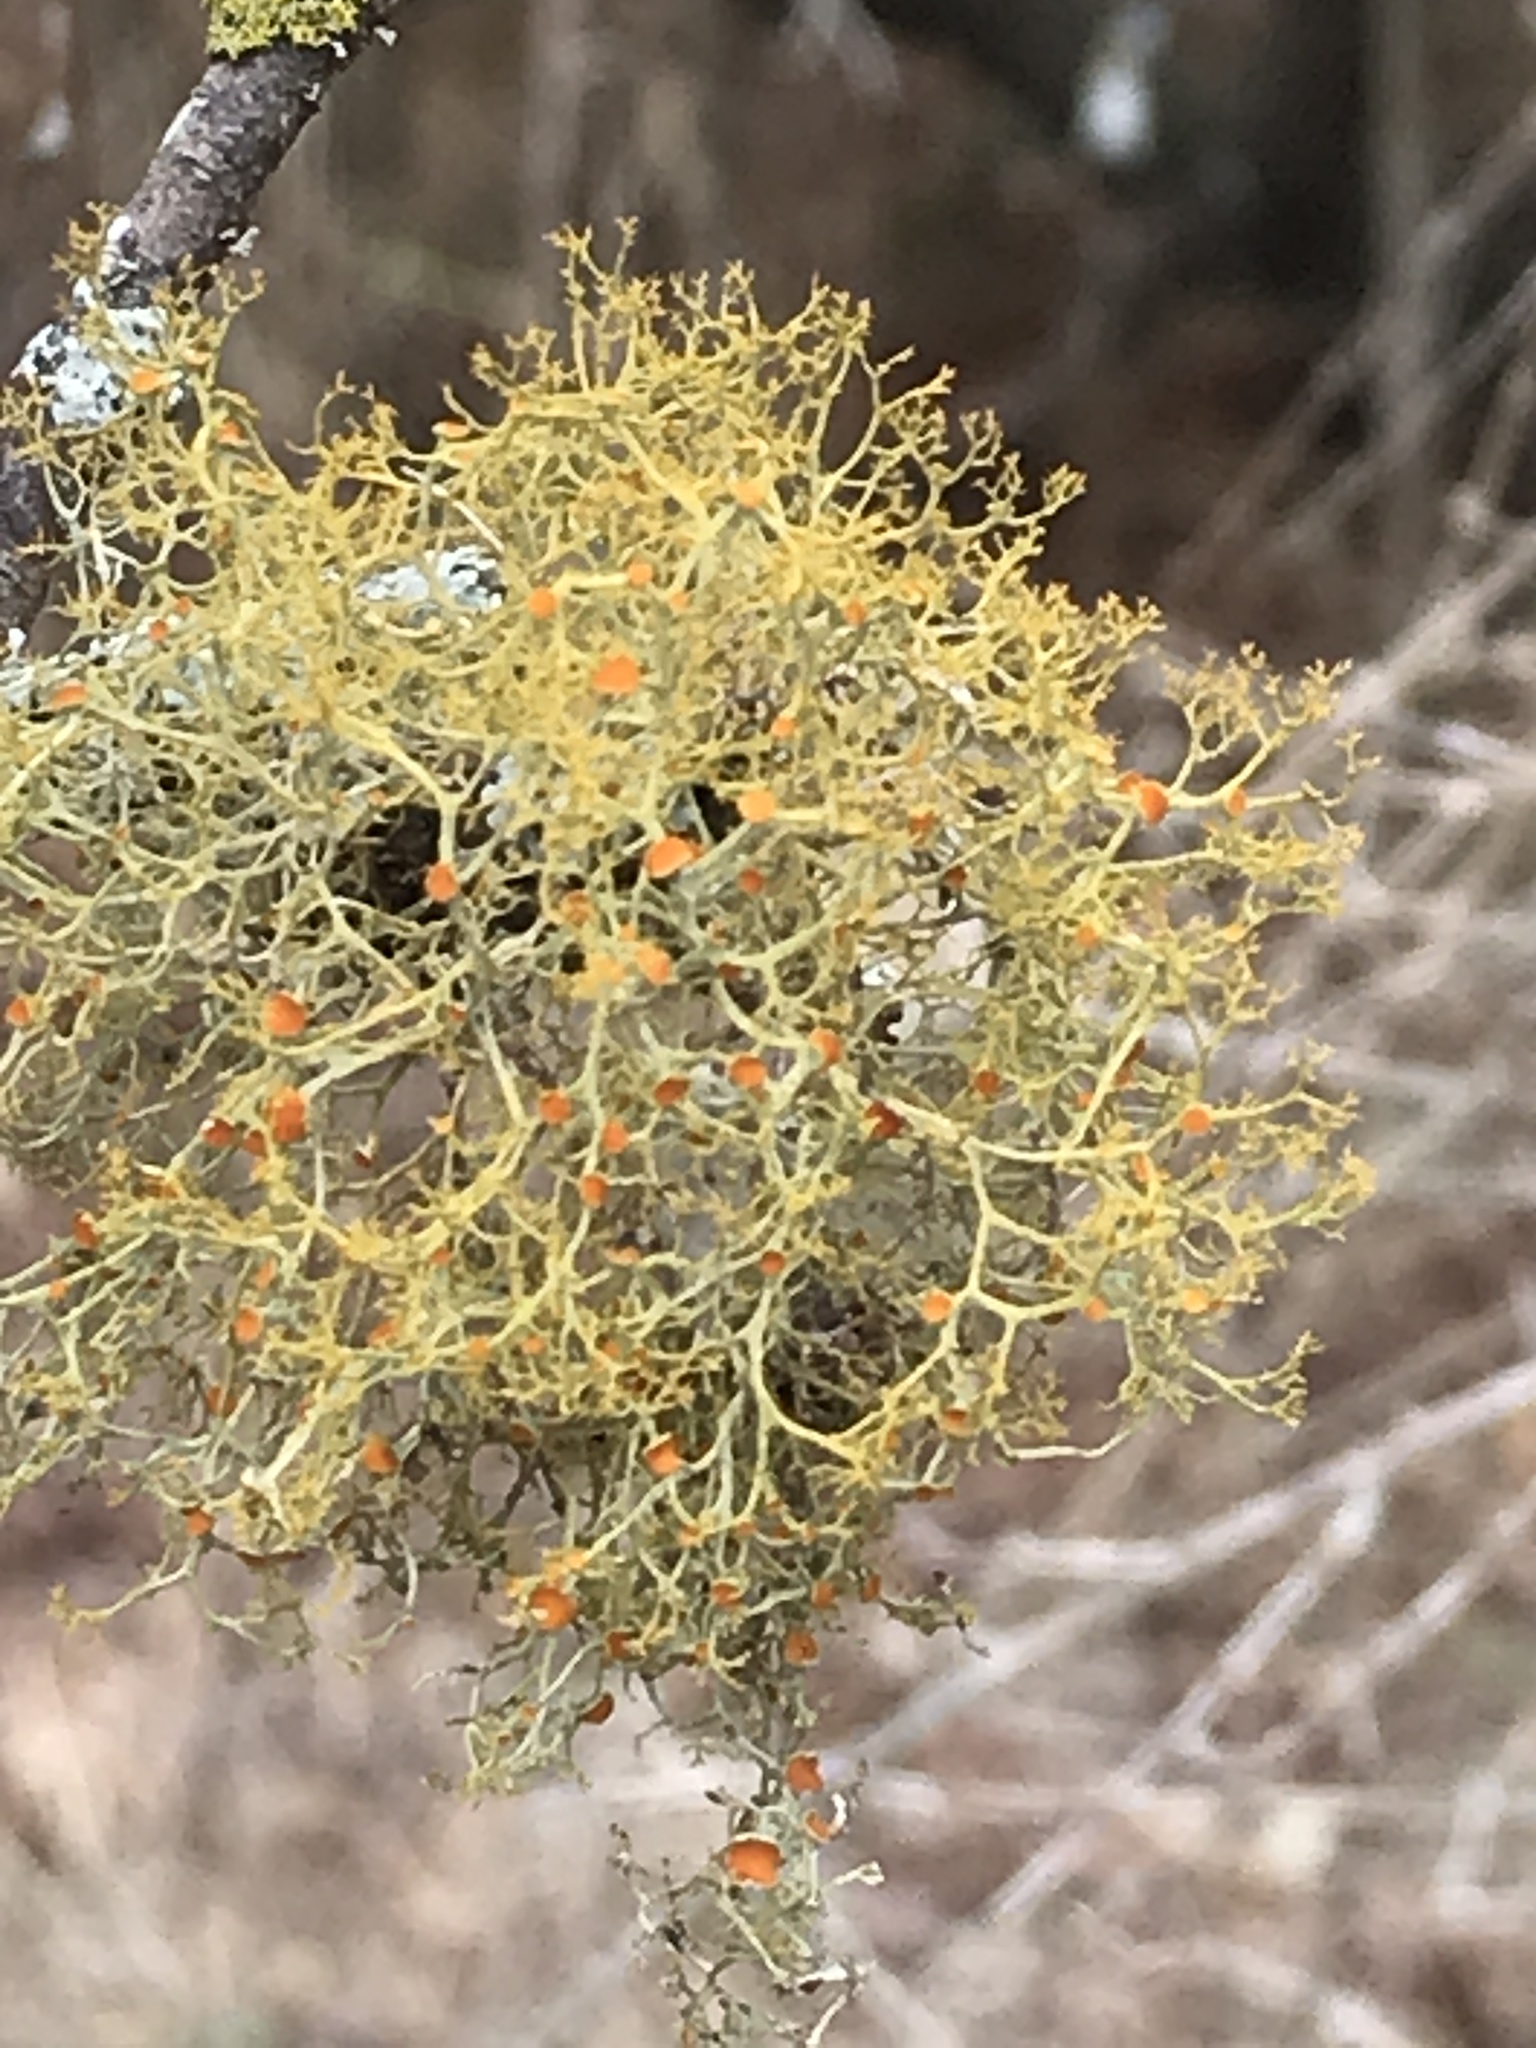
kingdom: Fungi
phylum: Ascomycota
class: Lecanoromycetes
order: Teloschistales
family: Teloschistaceae
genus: Teloschistes
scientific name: Teloschistes exilis
